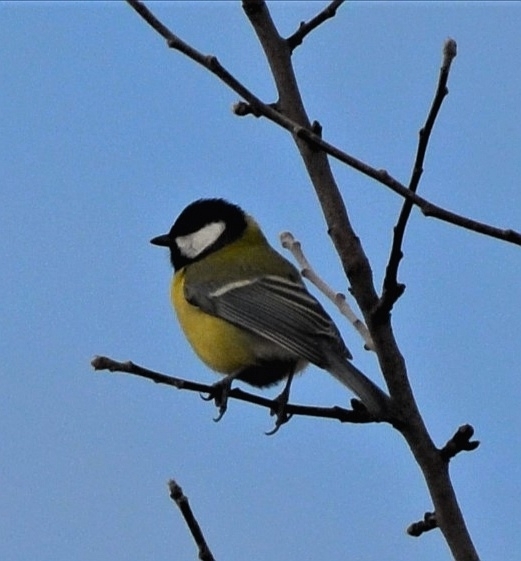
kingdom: Animalia
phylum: Chordata
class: Aves
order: Passeriformes
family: Paridae
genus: Parus
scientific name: Parus major
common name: Great tit
